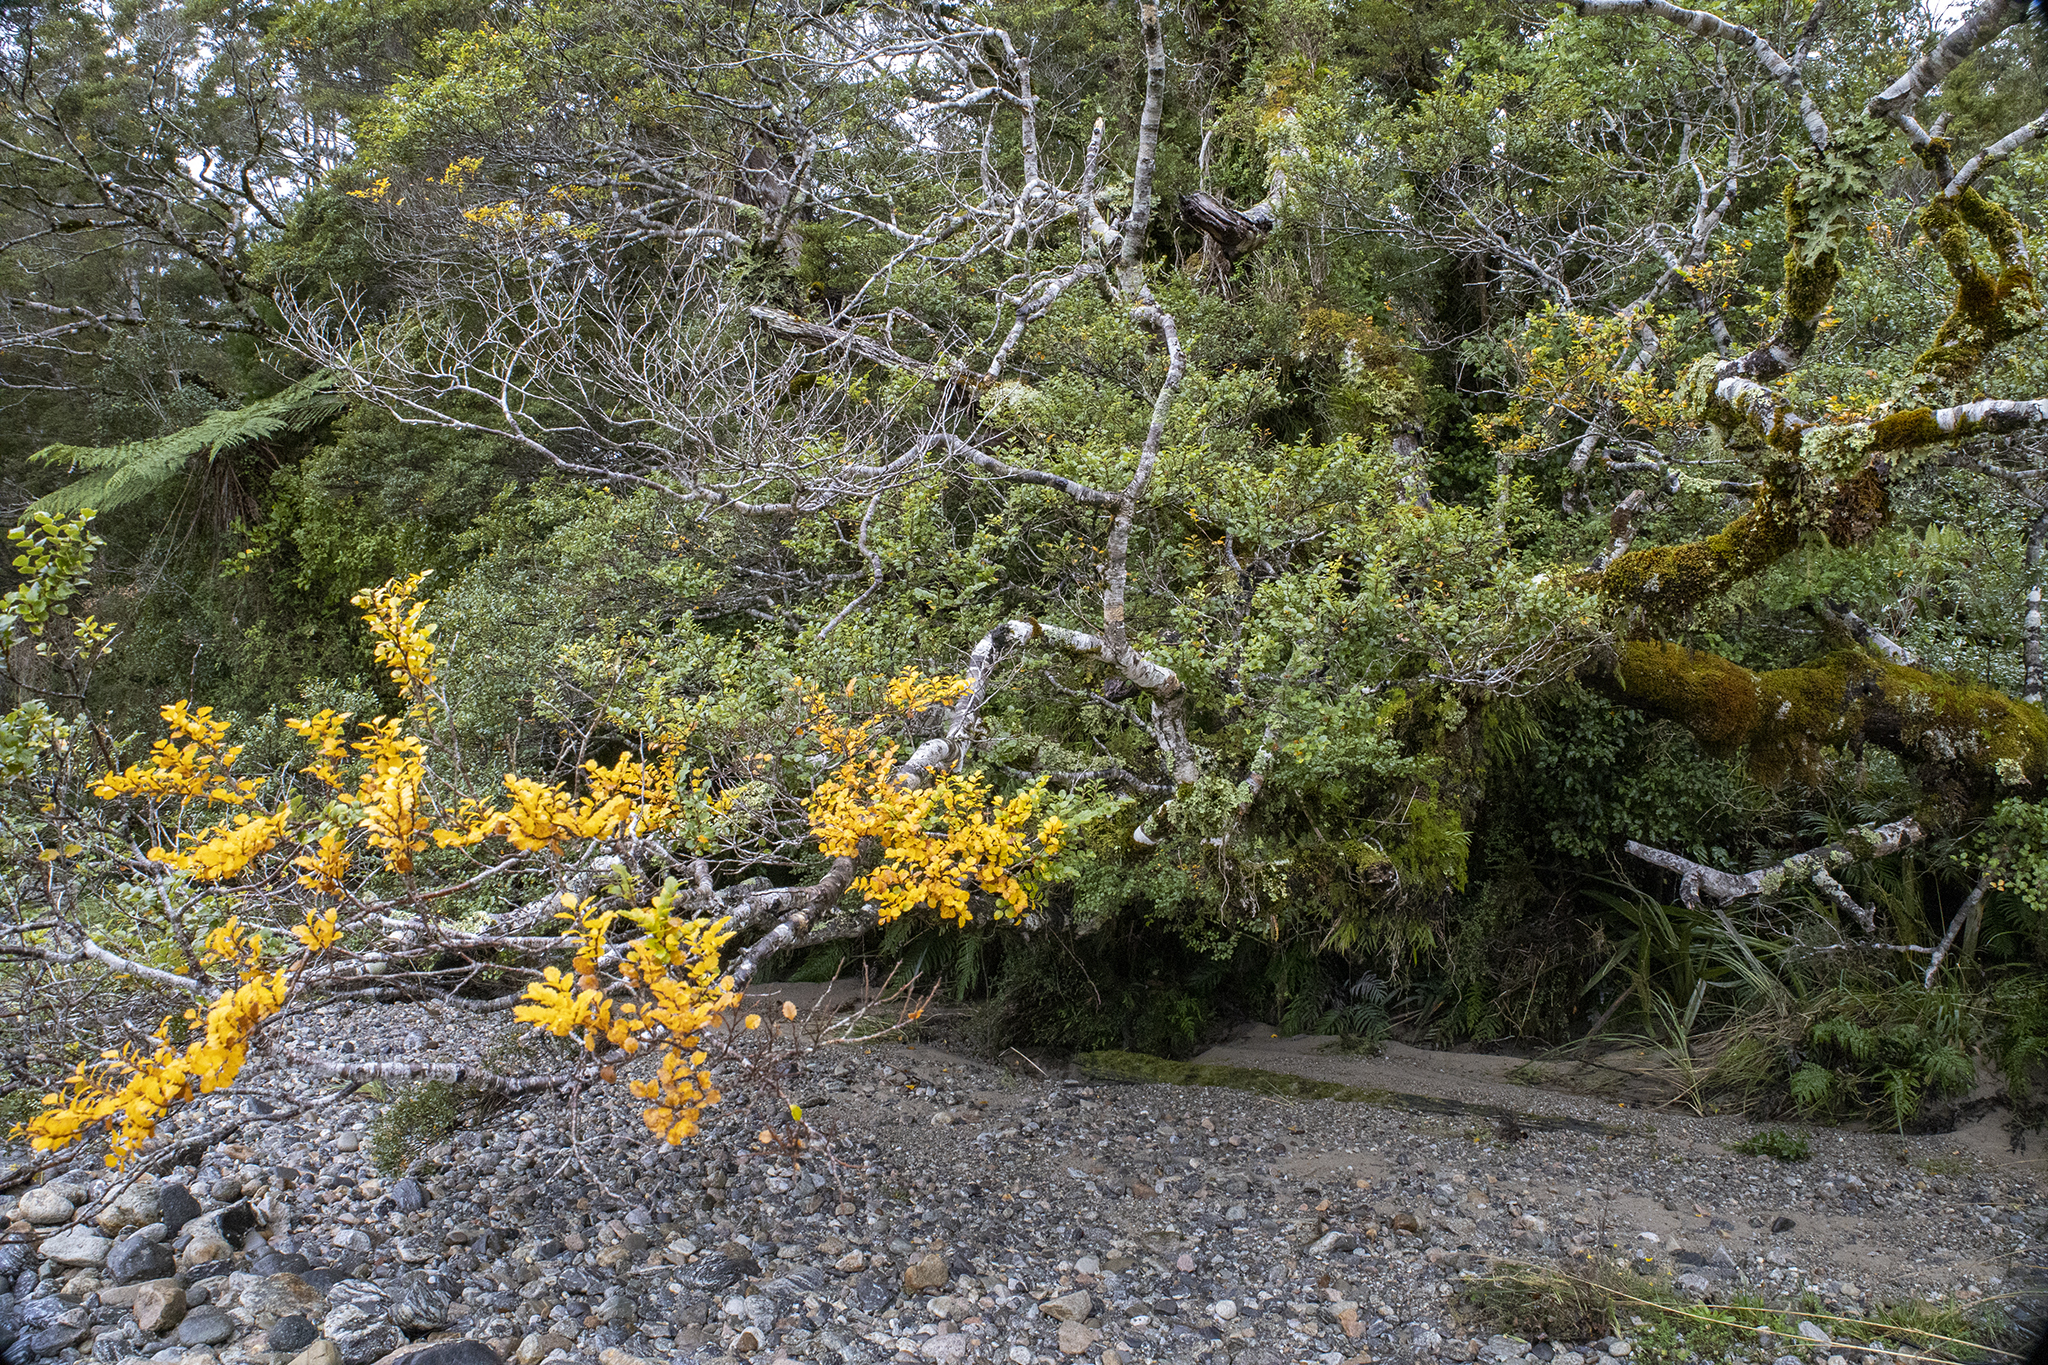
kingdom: Plantae
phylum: Tracheophyta
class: Magnoliopsida
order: Fagales
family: Nothofagaceae
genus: Nothofagus
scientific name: Nothofagus menziesii
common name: Silver beech
